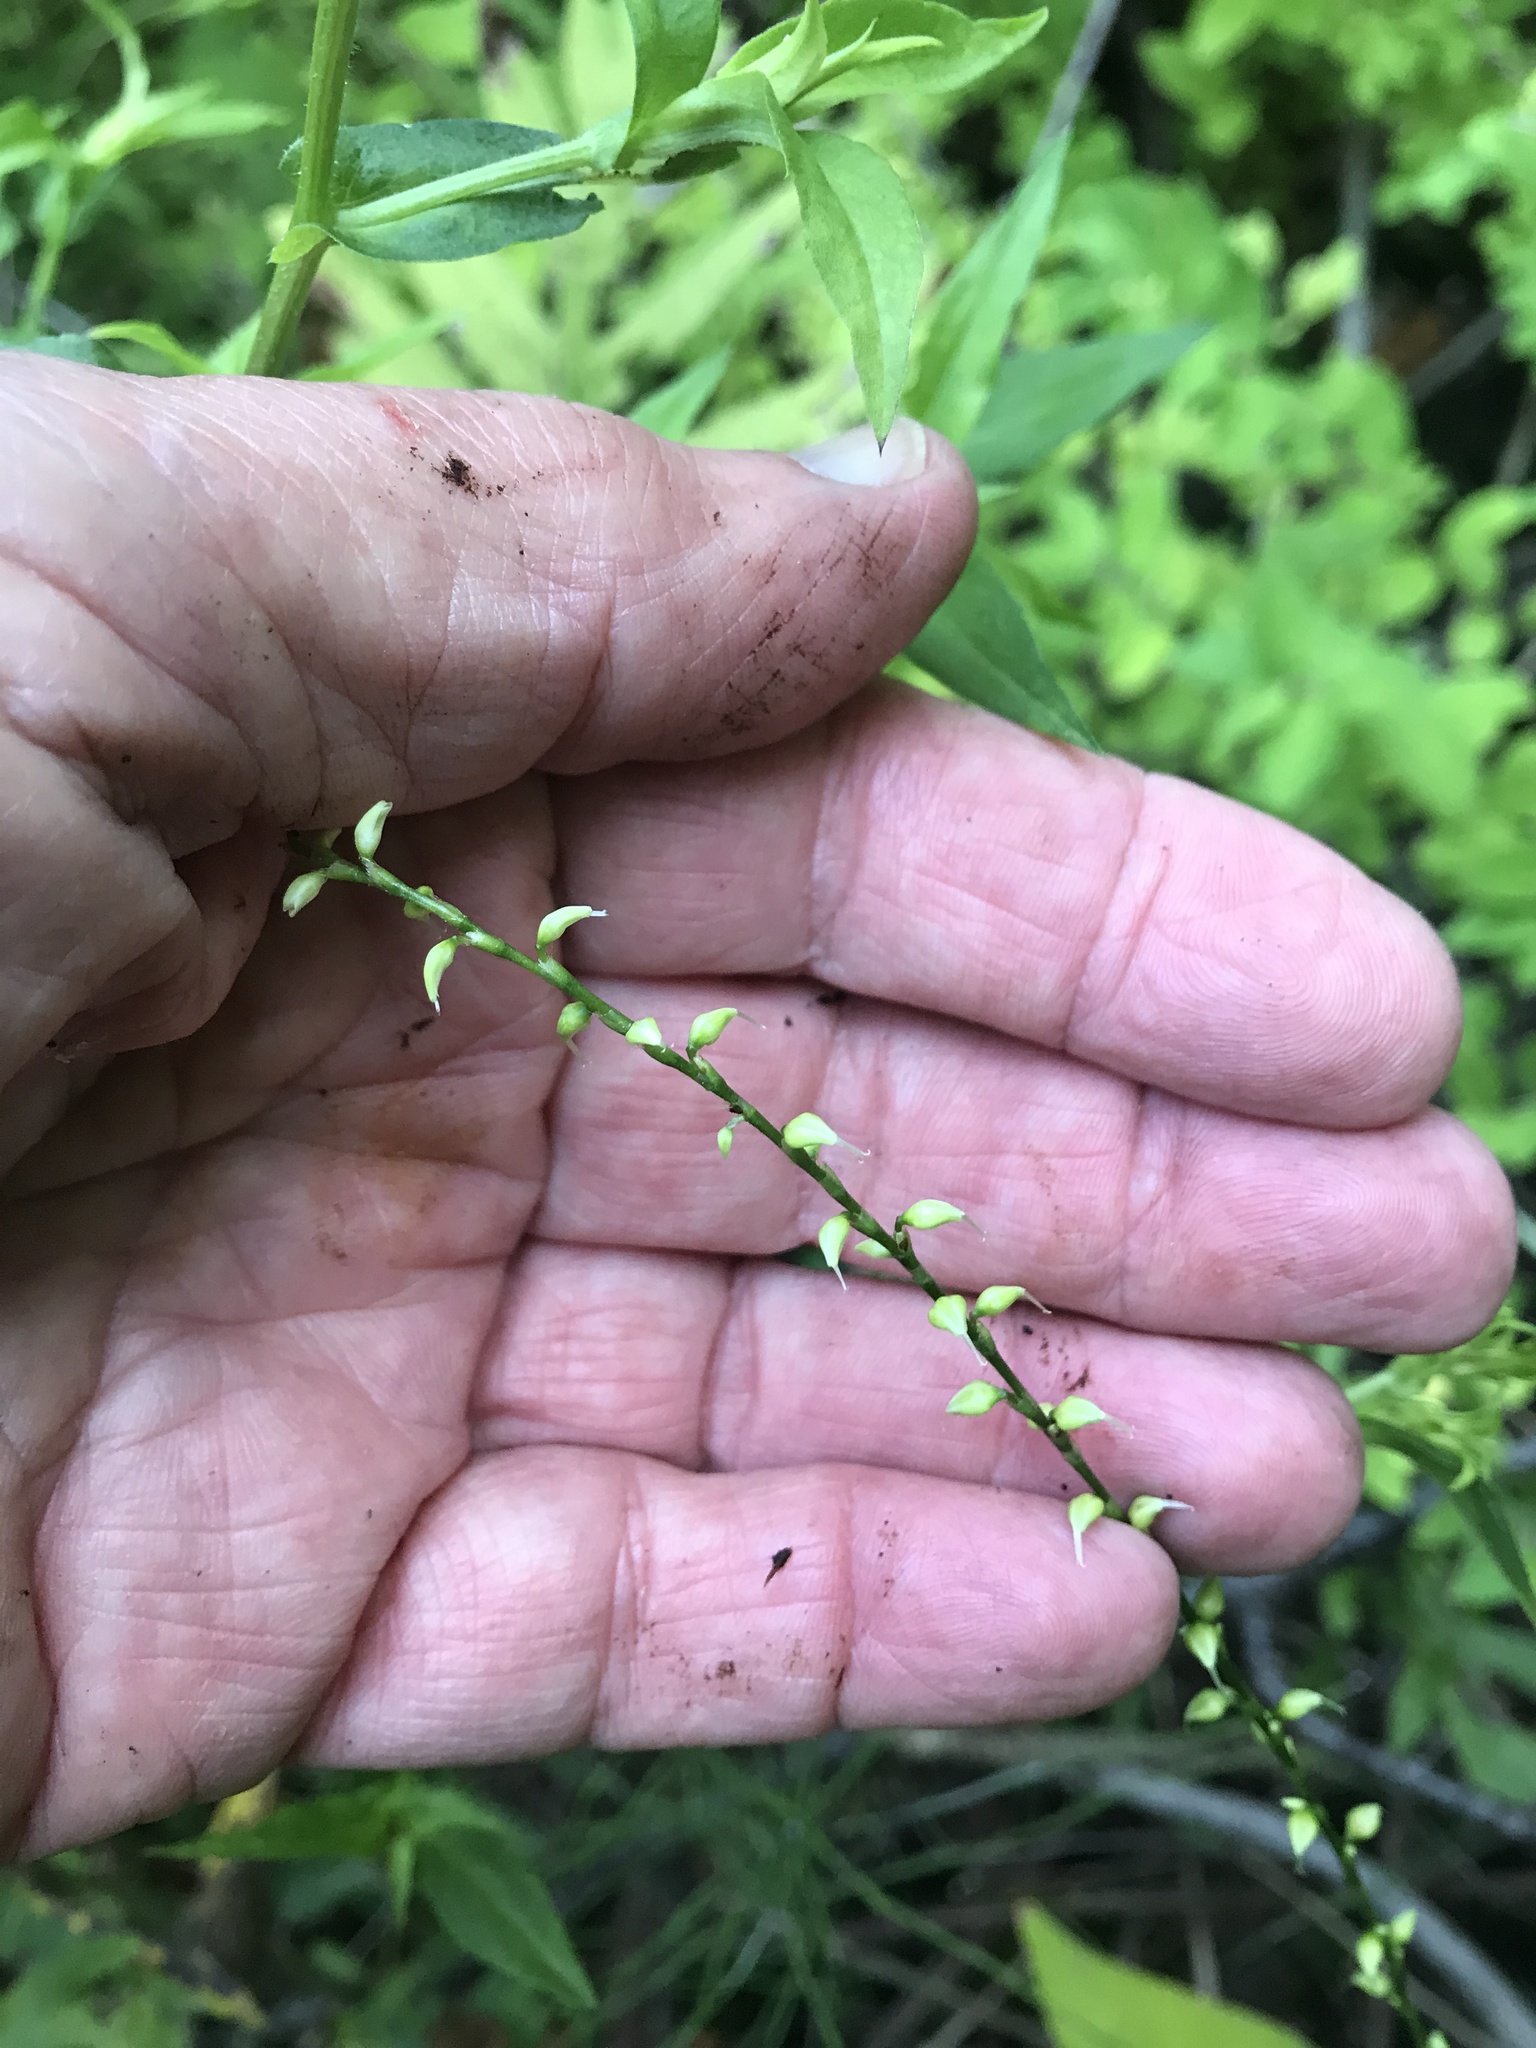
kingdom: Plantae
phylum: Tracheophyta
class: Magnoliopsida
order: Caryophyllales
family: Polygonaceae
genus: Persicaria
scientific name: Persicaria virginiana
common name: Jumpseed
